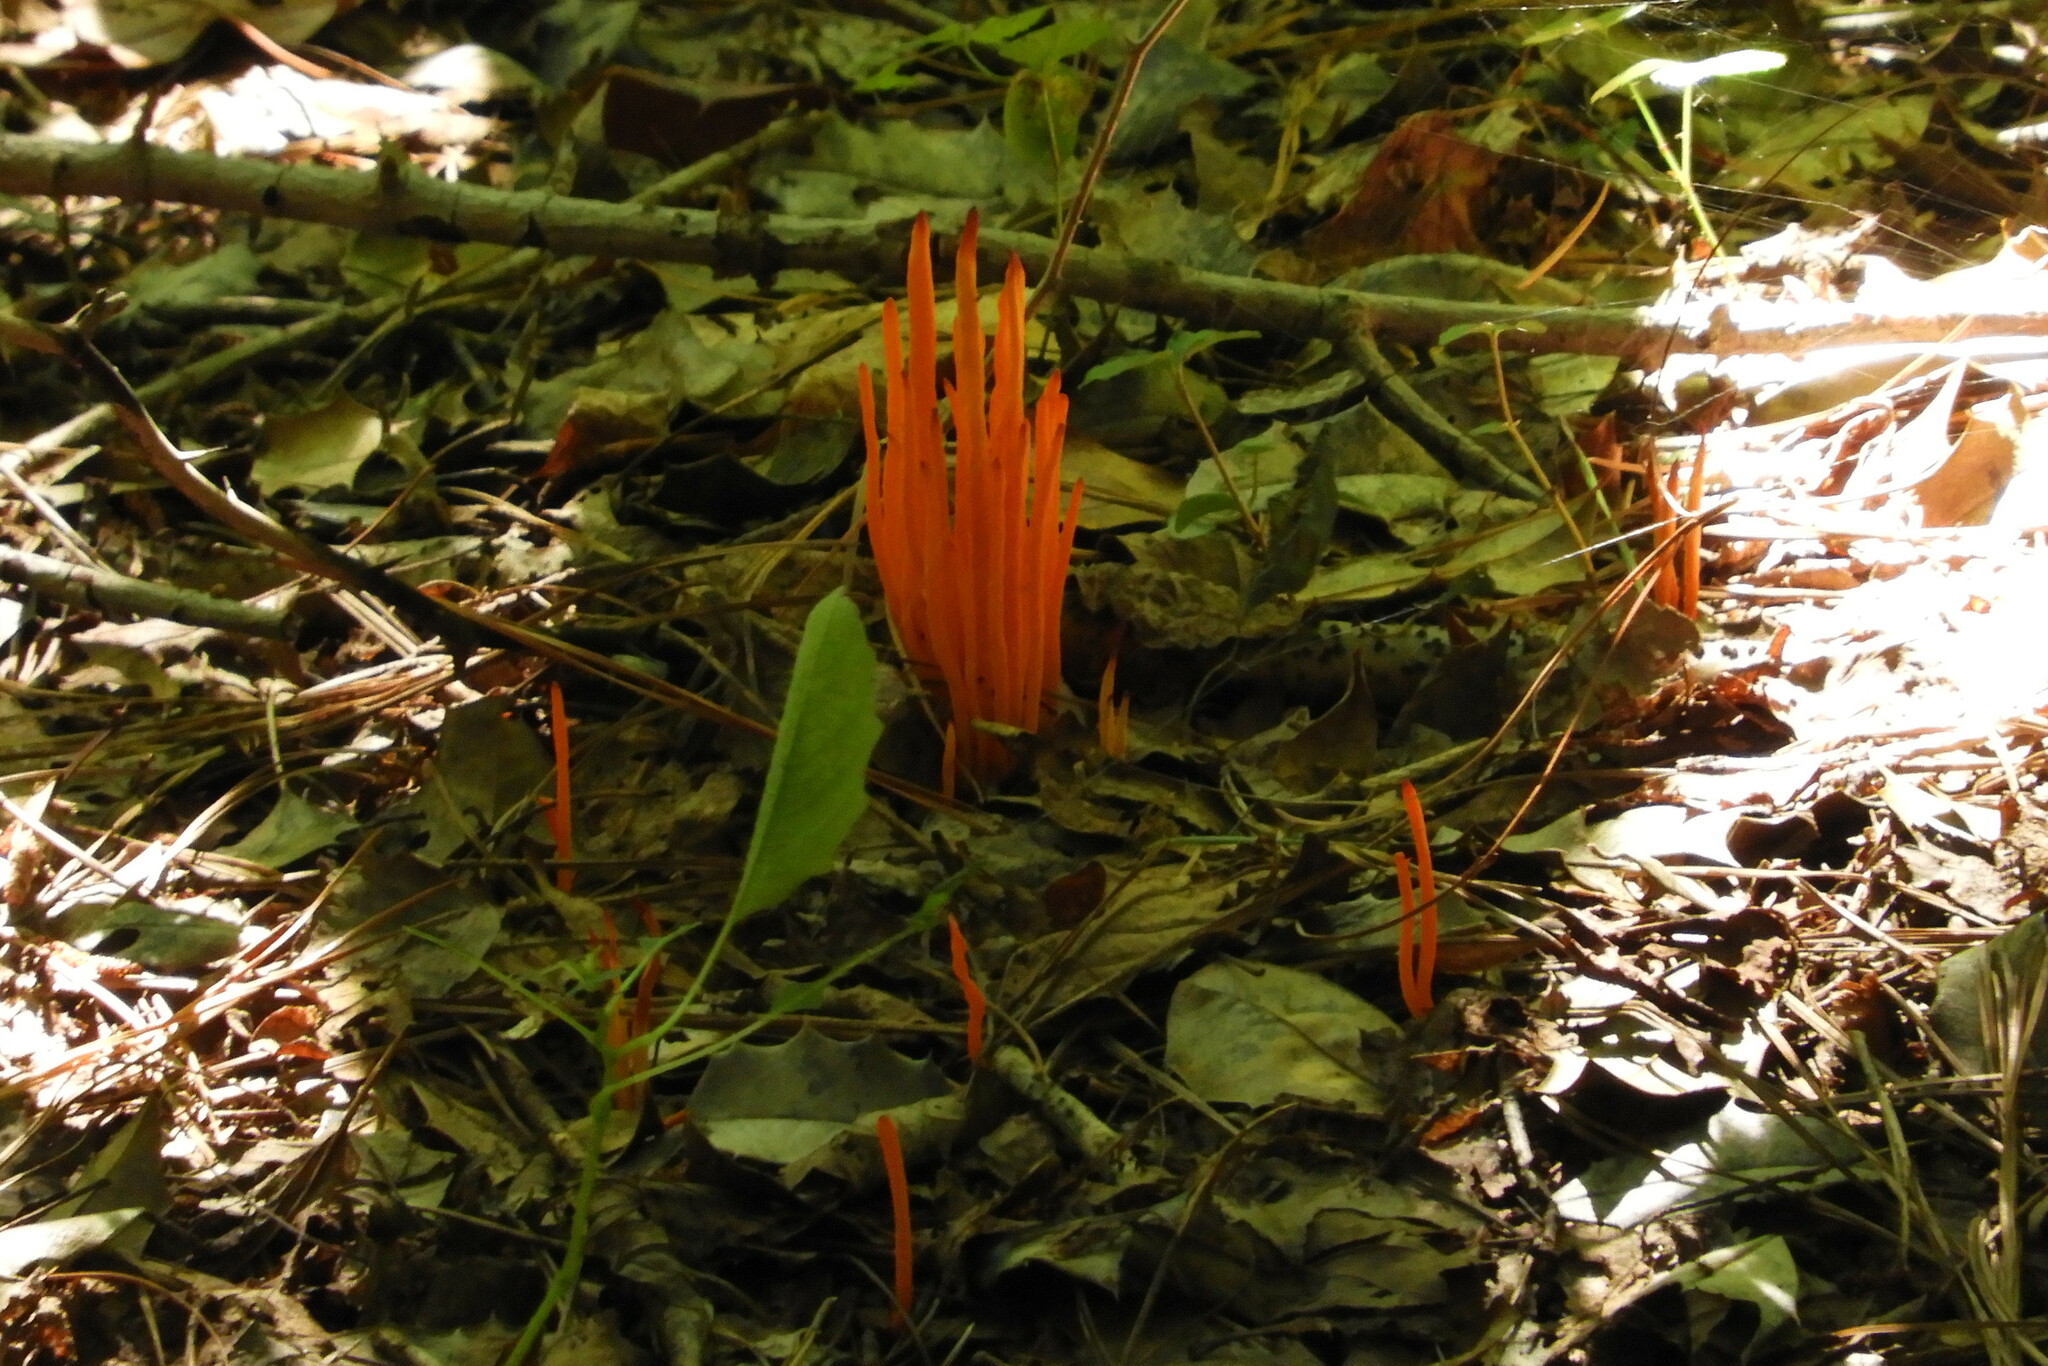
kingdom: Fungi
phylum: Basidiomycota
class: Agaricomycetes
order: Agaricales
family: Clavariaceae
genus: Clavulinopsis
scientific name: Clavulinopsis aurantiocinnabarina
